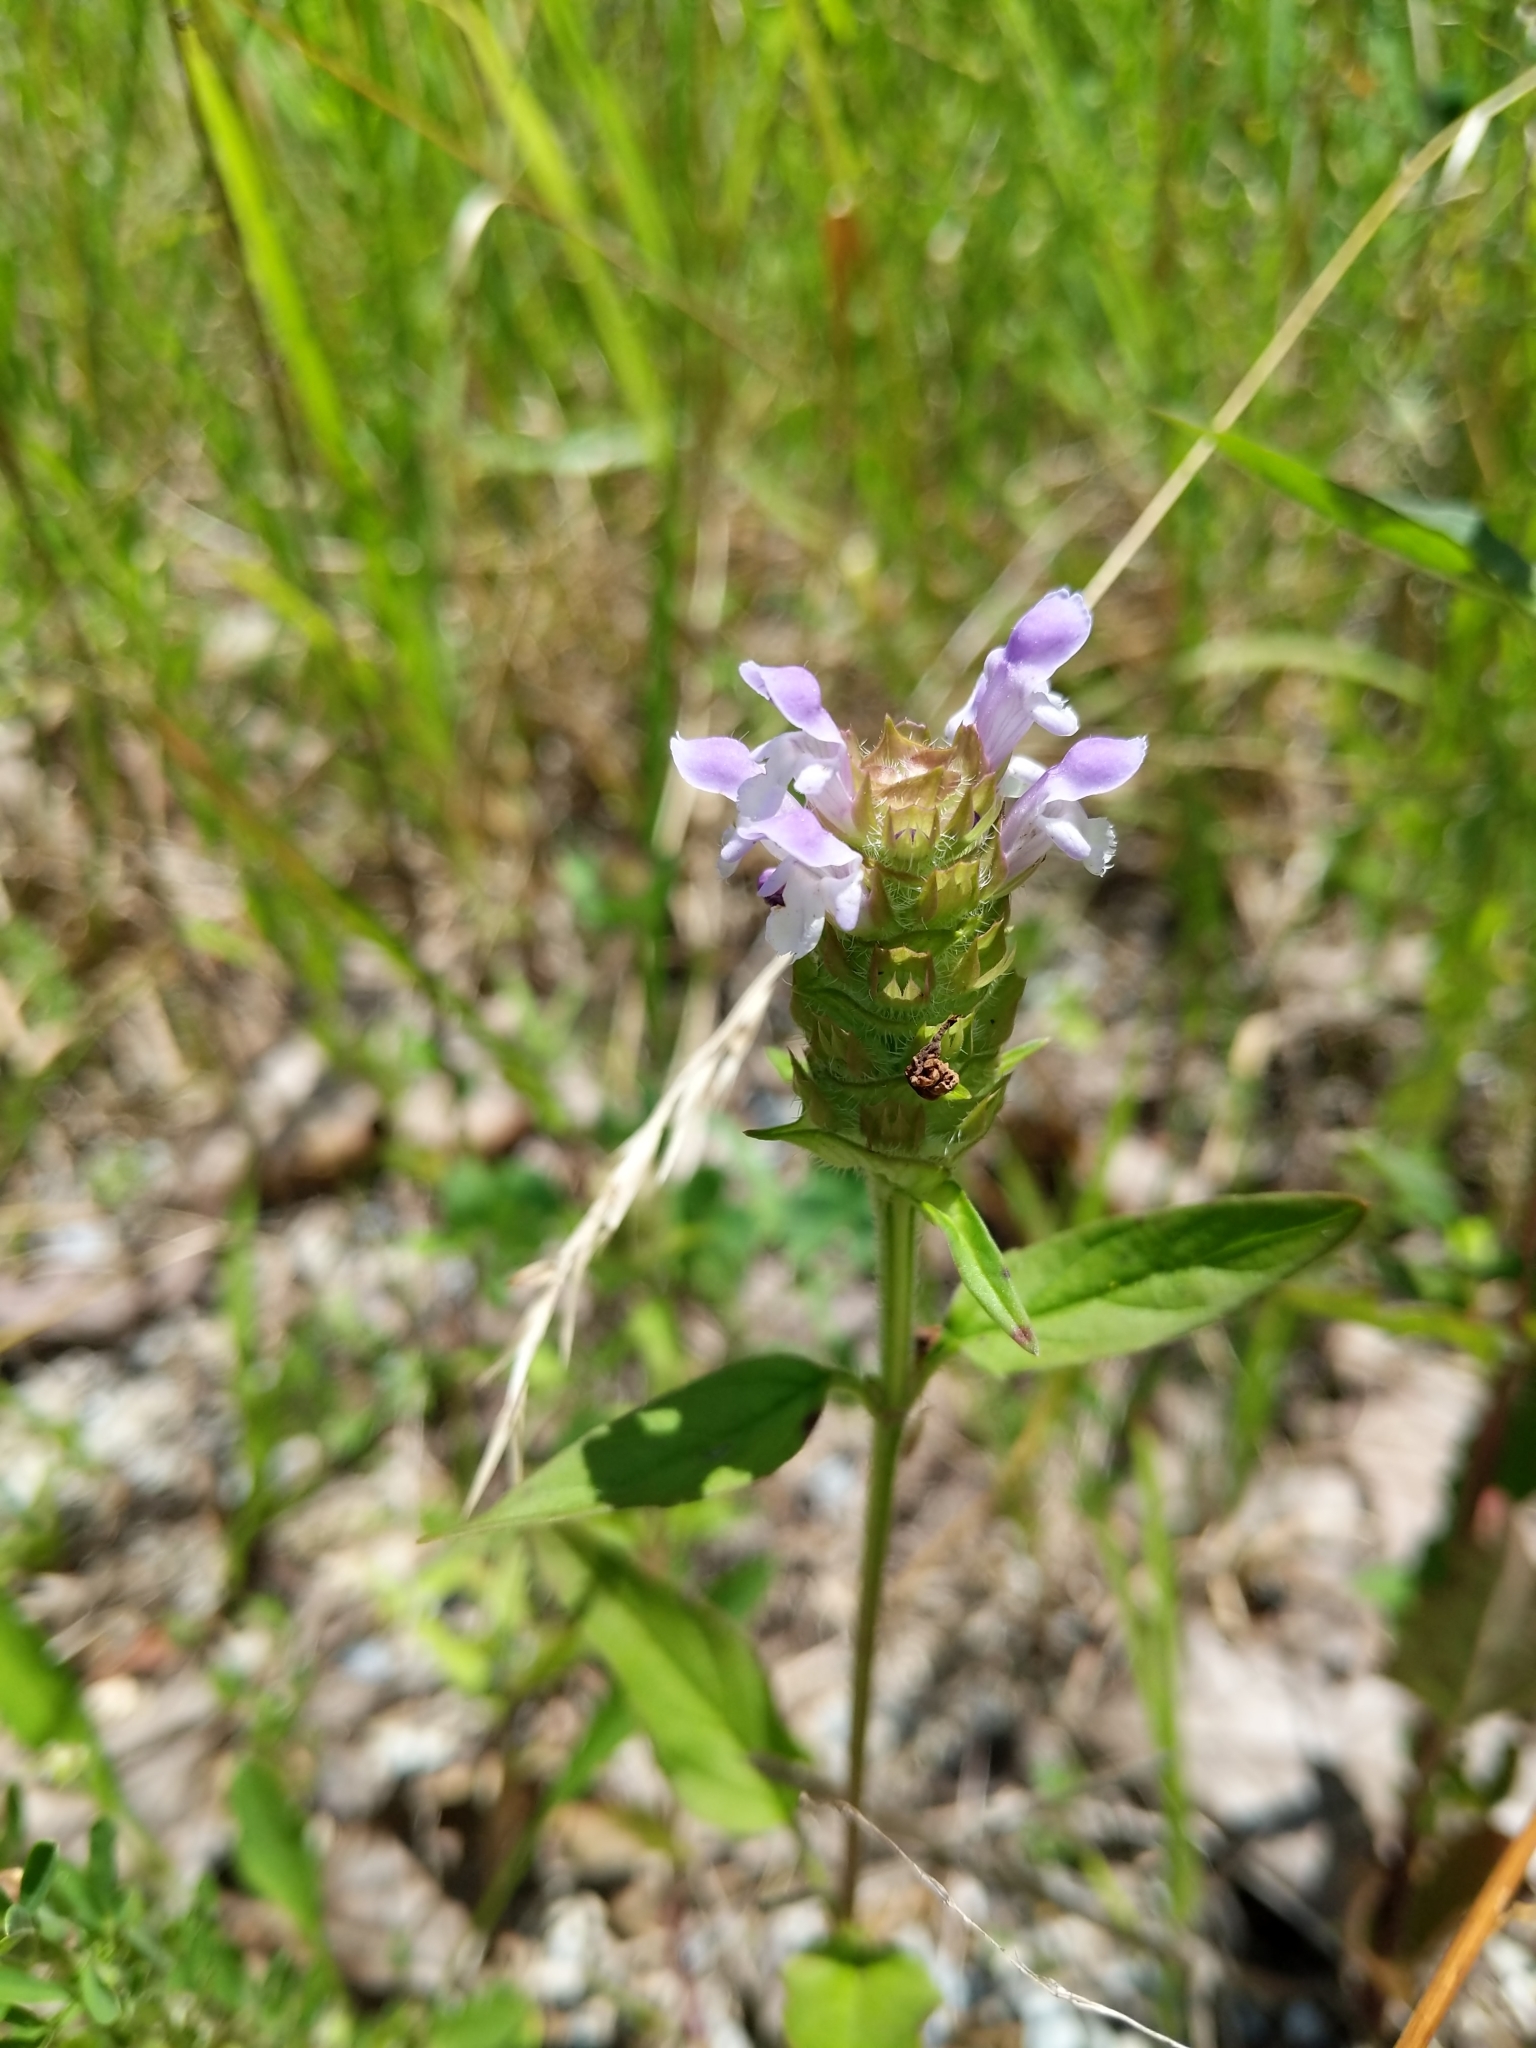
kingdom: Plantae
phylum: Tracheophyta
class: Magnoliopsida
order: Lamiales
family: Lamiaceae
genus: Prunella
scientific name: Prunella vulgaris
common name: Heal-all
